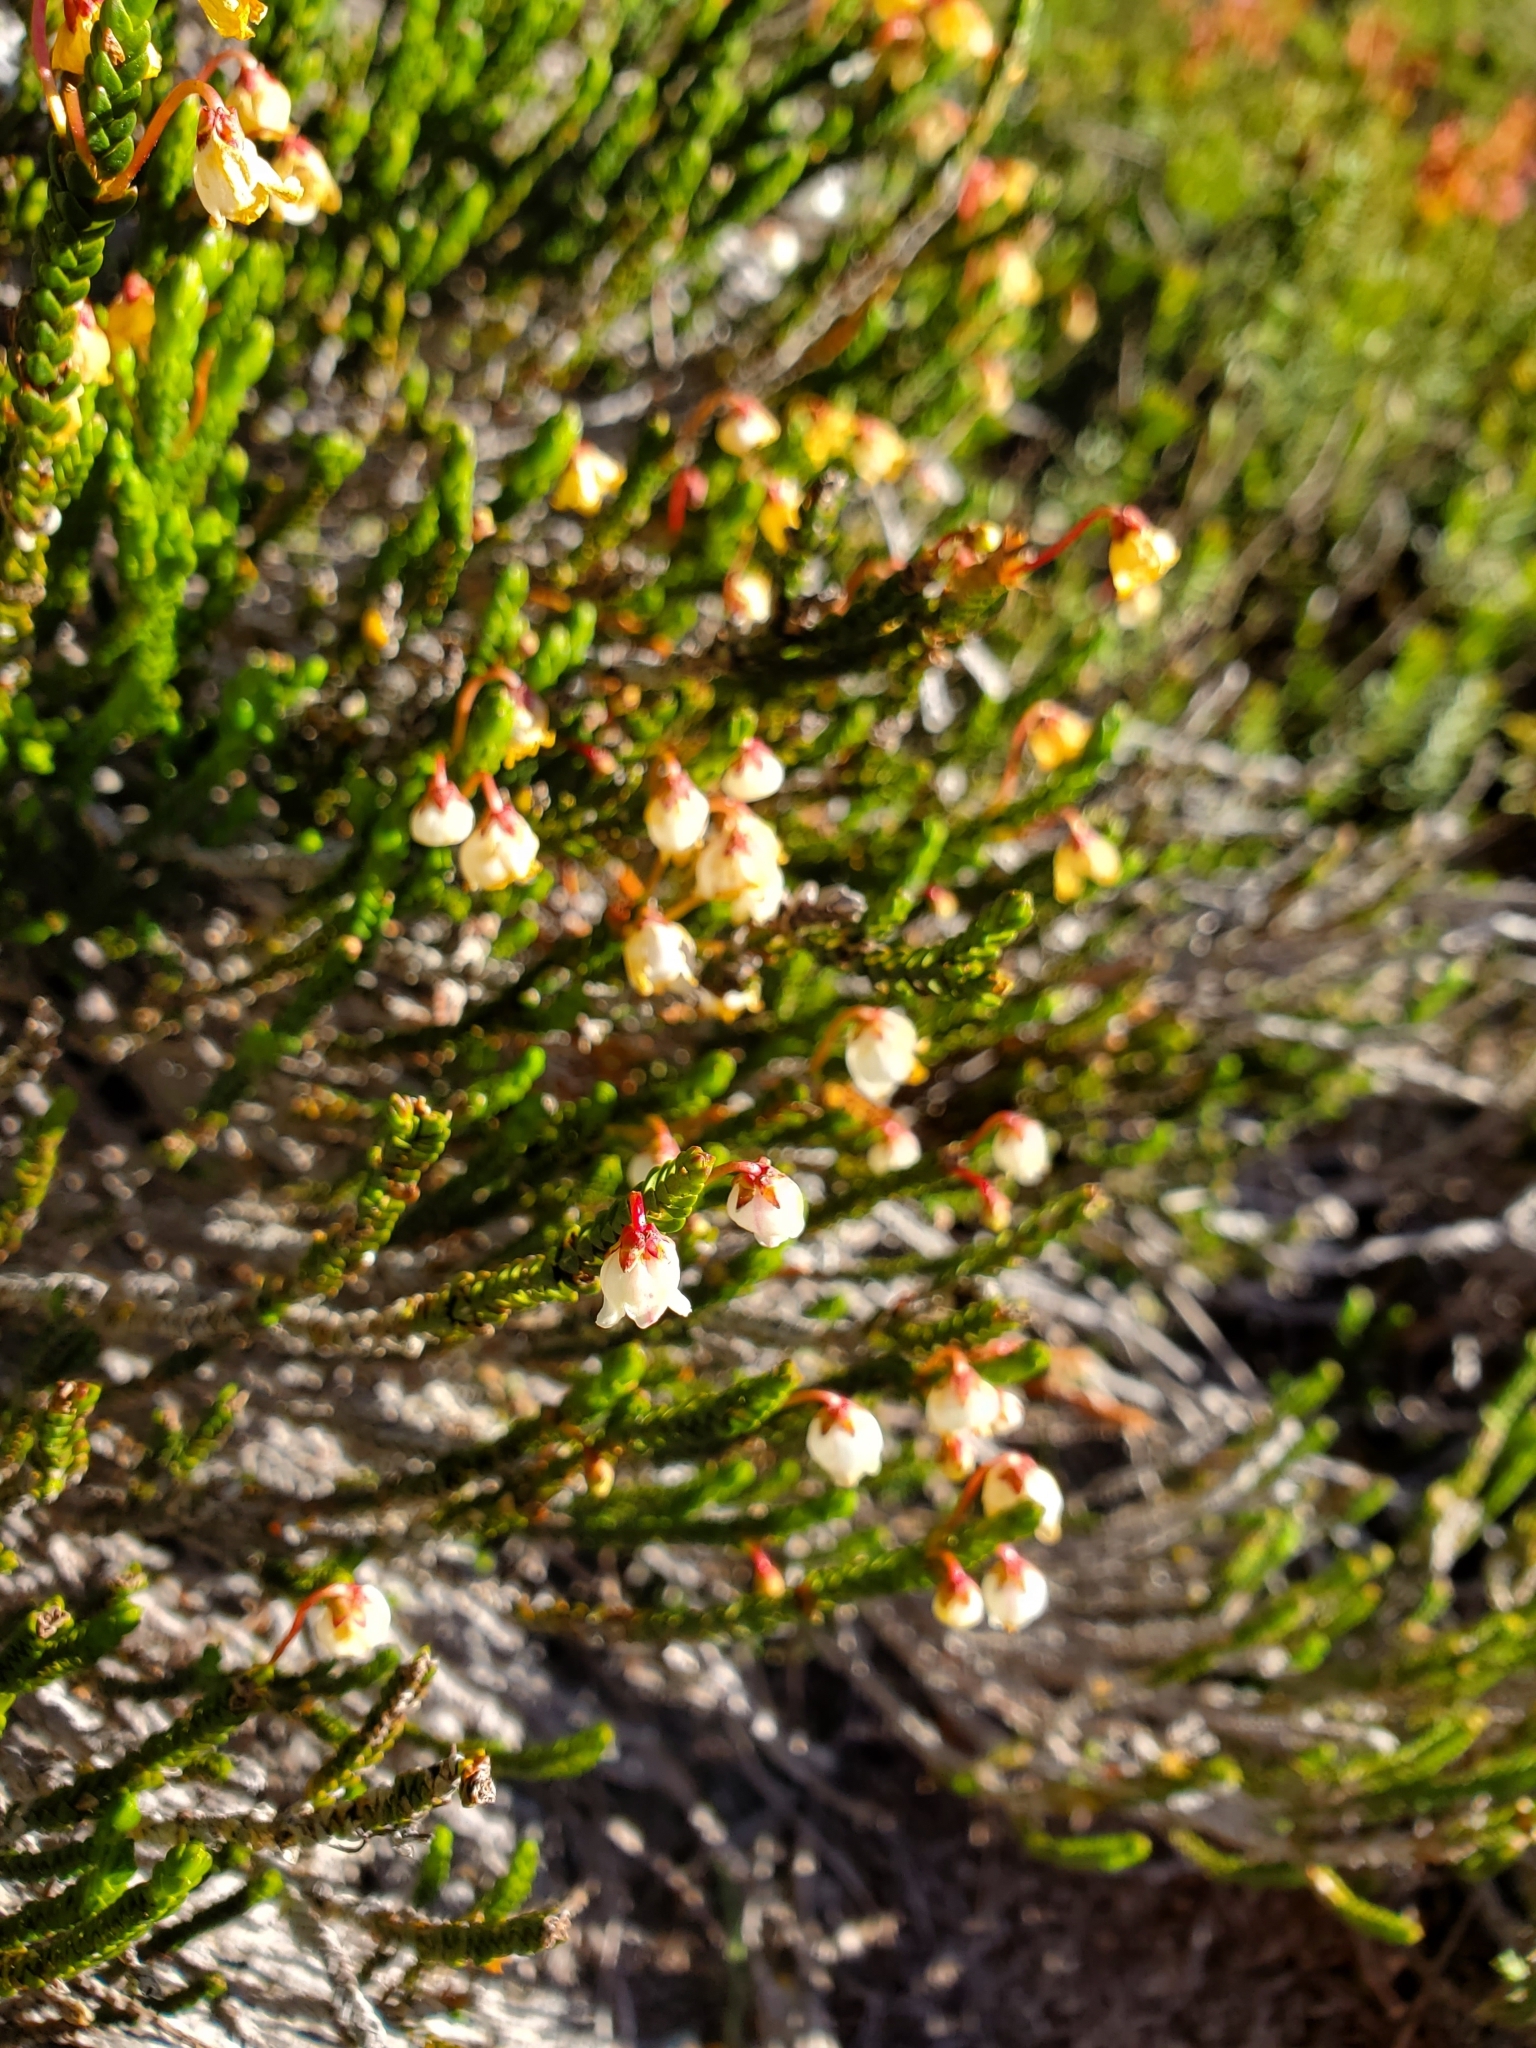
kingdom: Plantae
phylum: Tracheophyta
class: Magnoliopsida
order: Ericales
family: Ericaceae
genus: Cassiope
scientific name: Cassiope mertensiana
